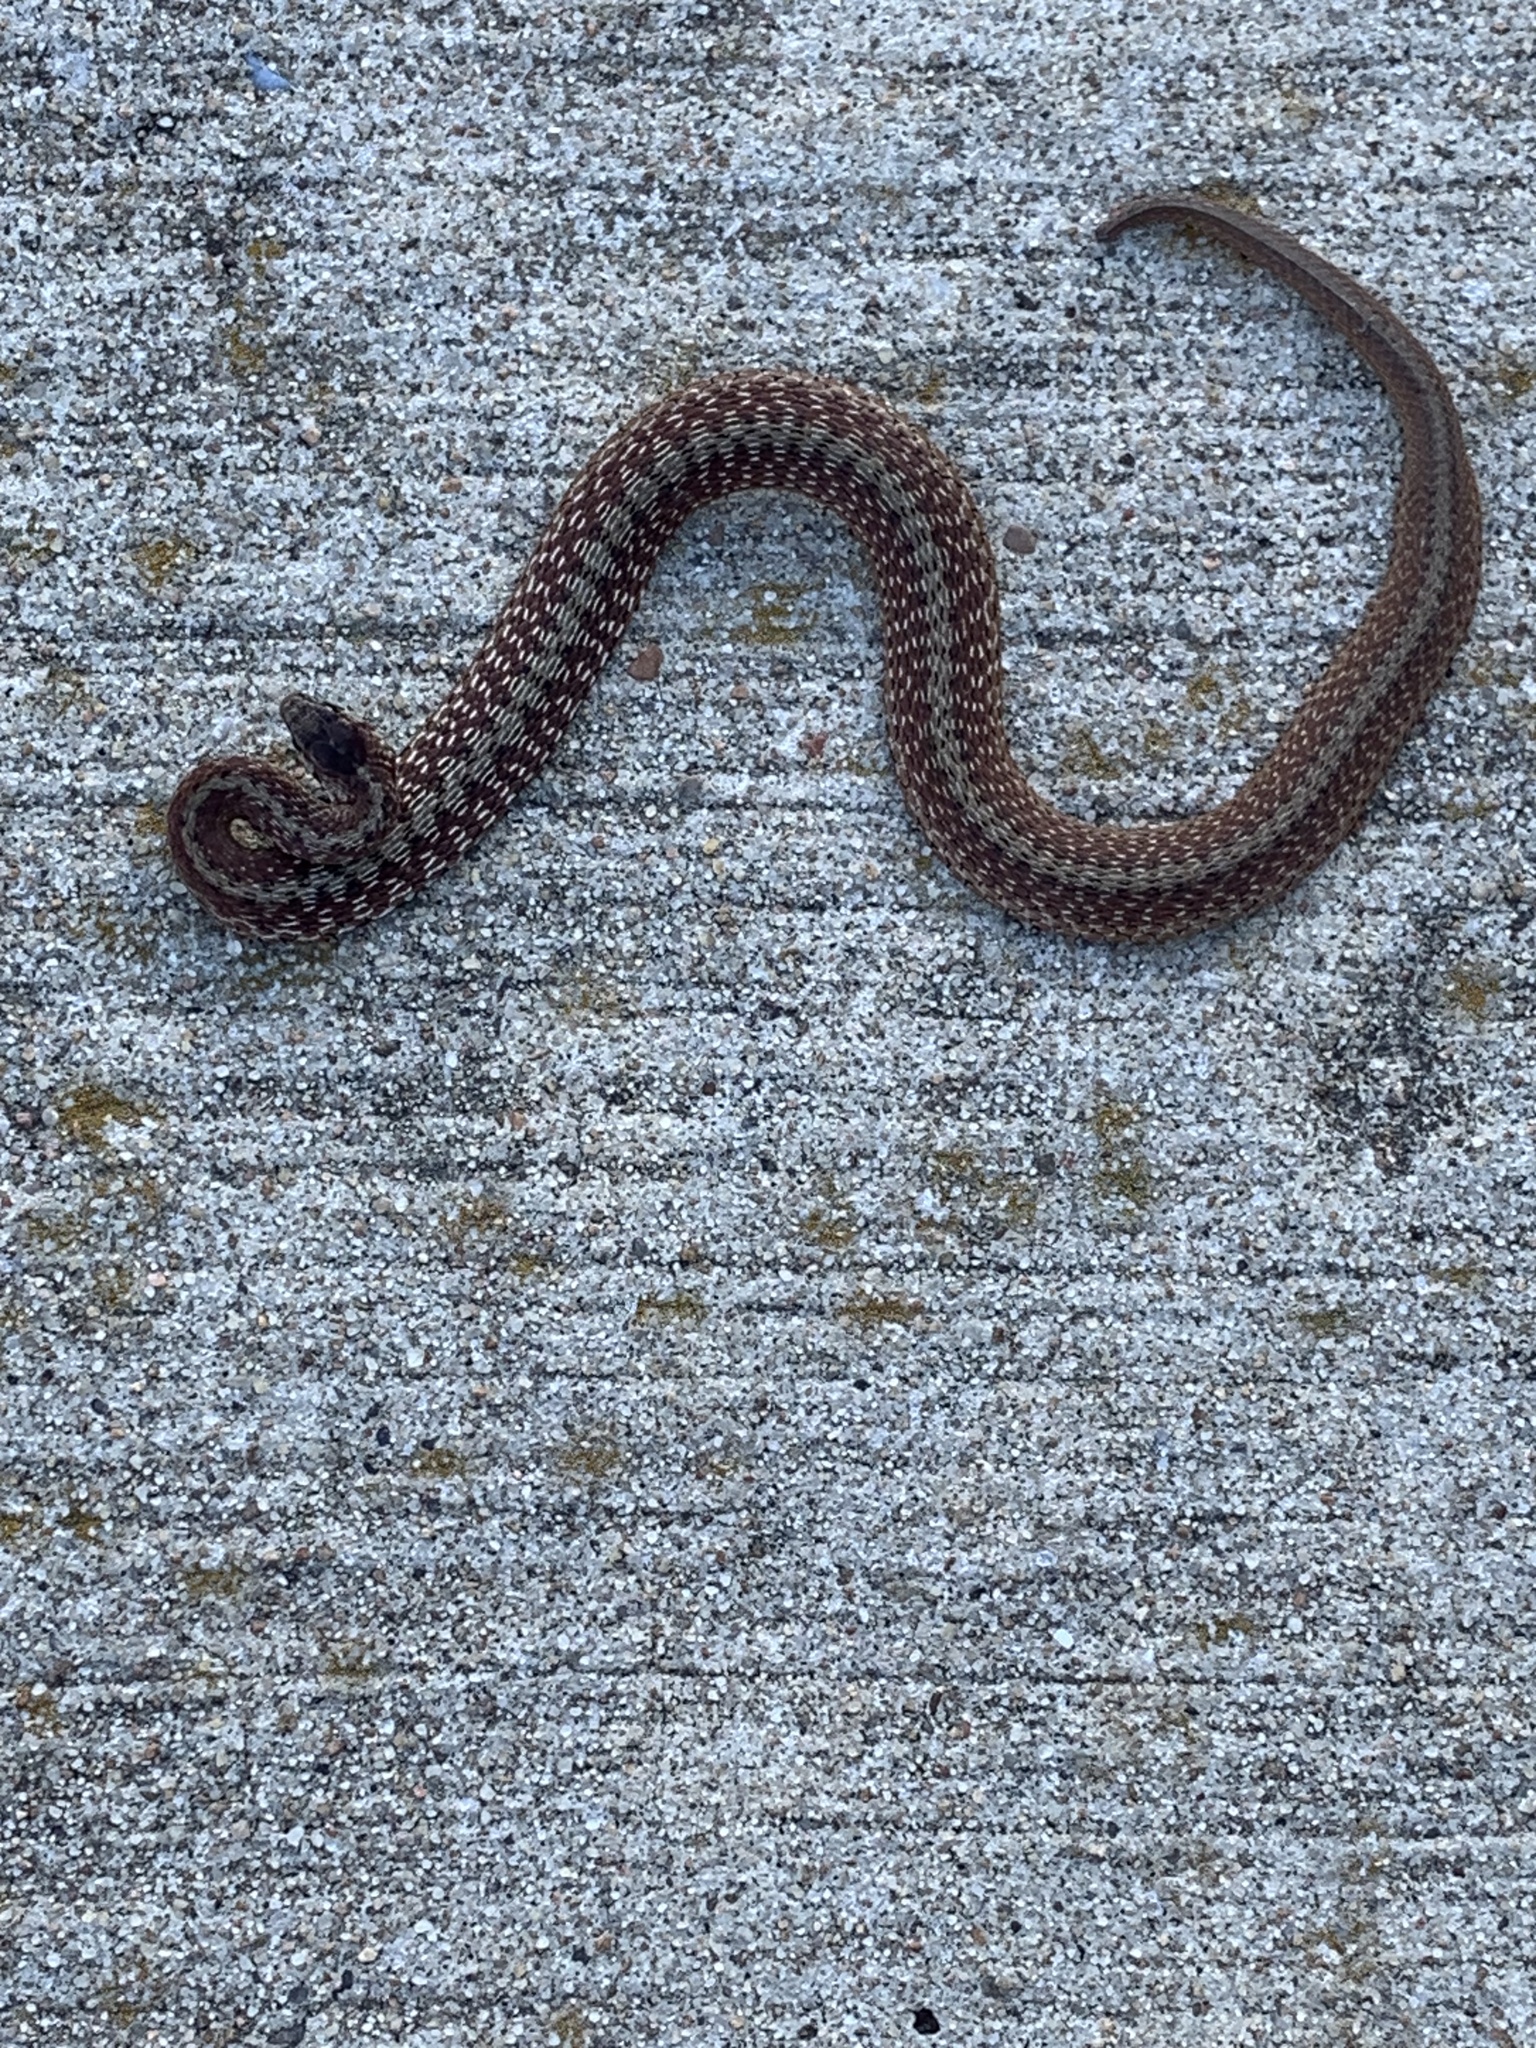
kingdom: Animalia
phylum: Chordata
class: Squamata
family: Colubridae
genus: Storeria
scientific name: Storeria dekayi
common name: (dekay’s) brown snake
